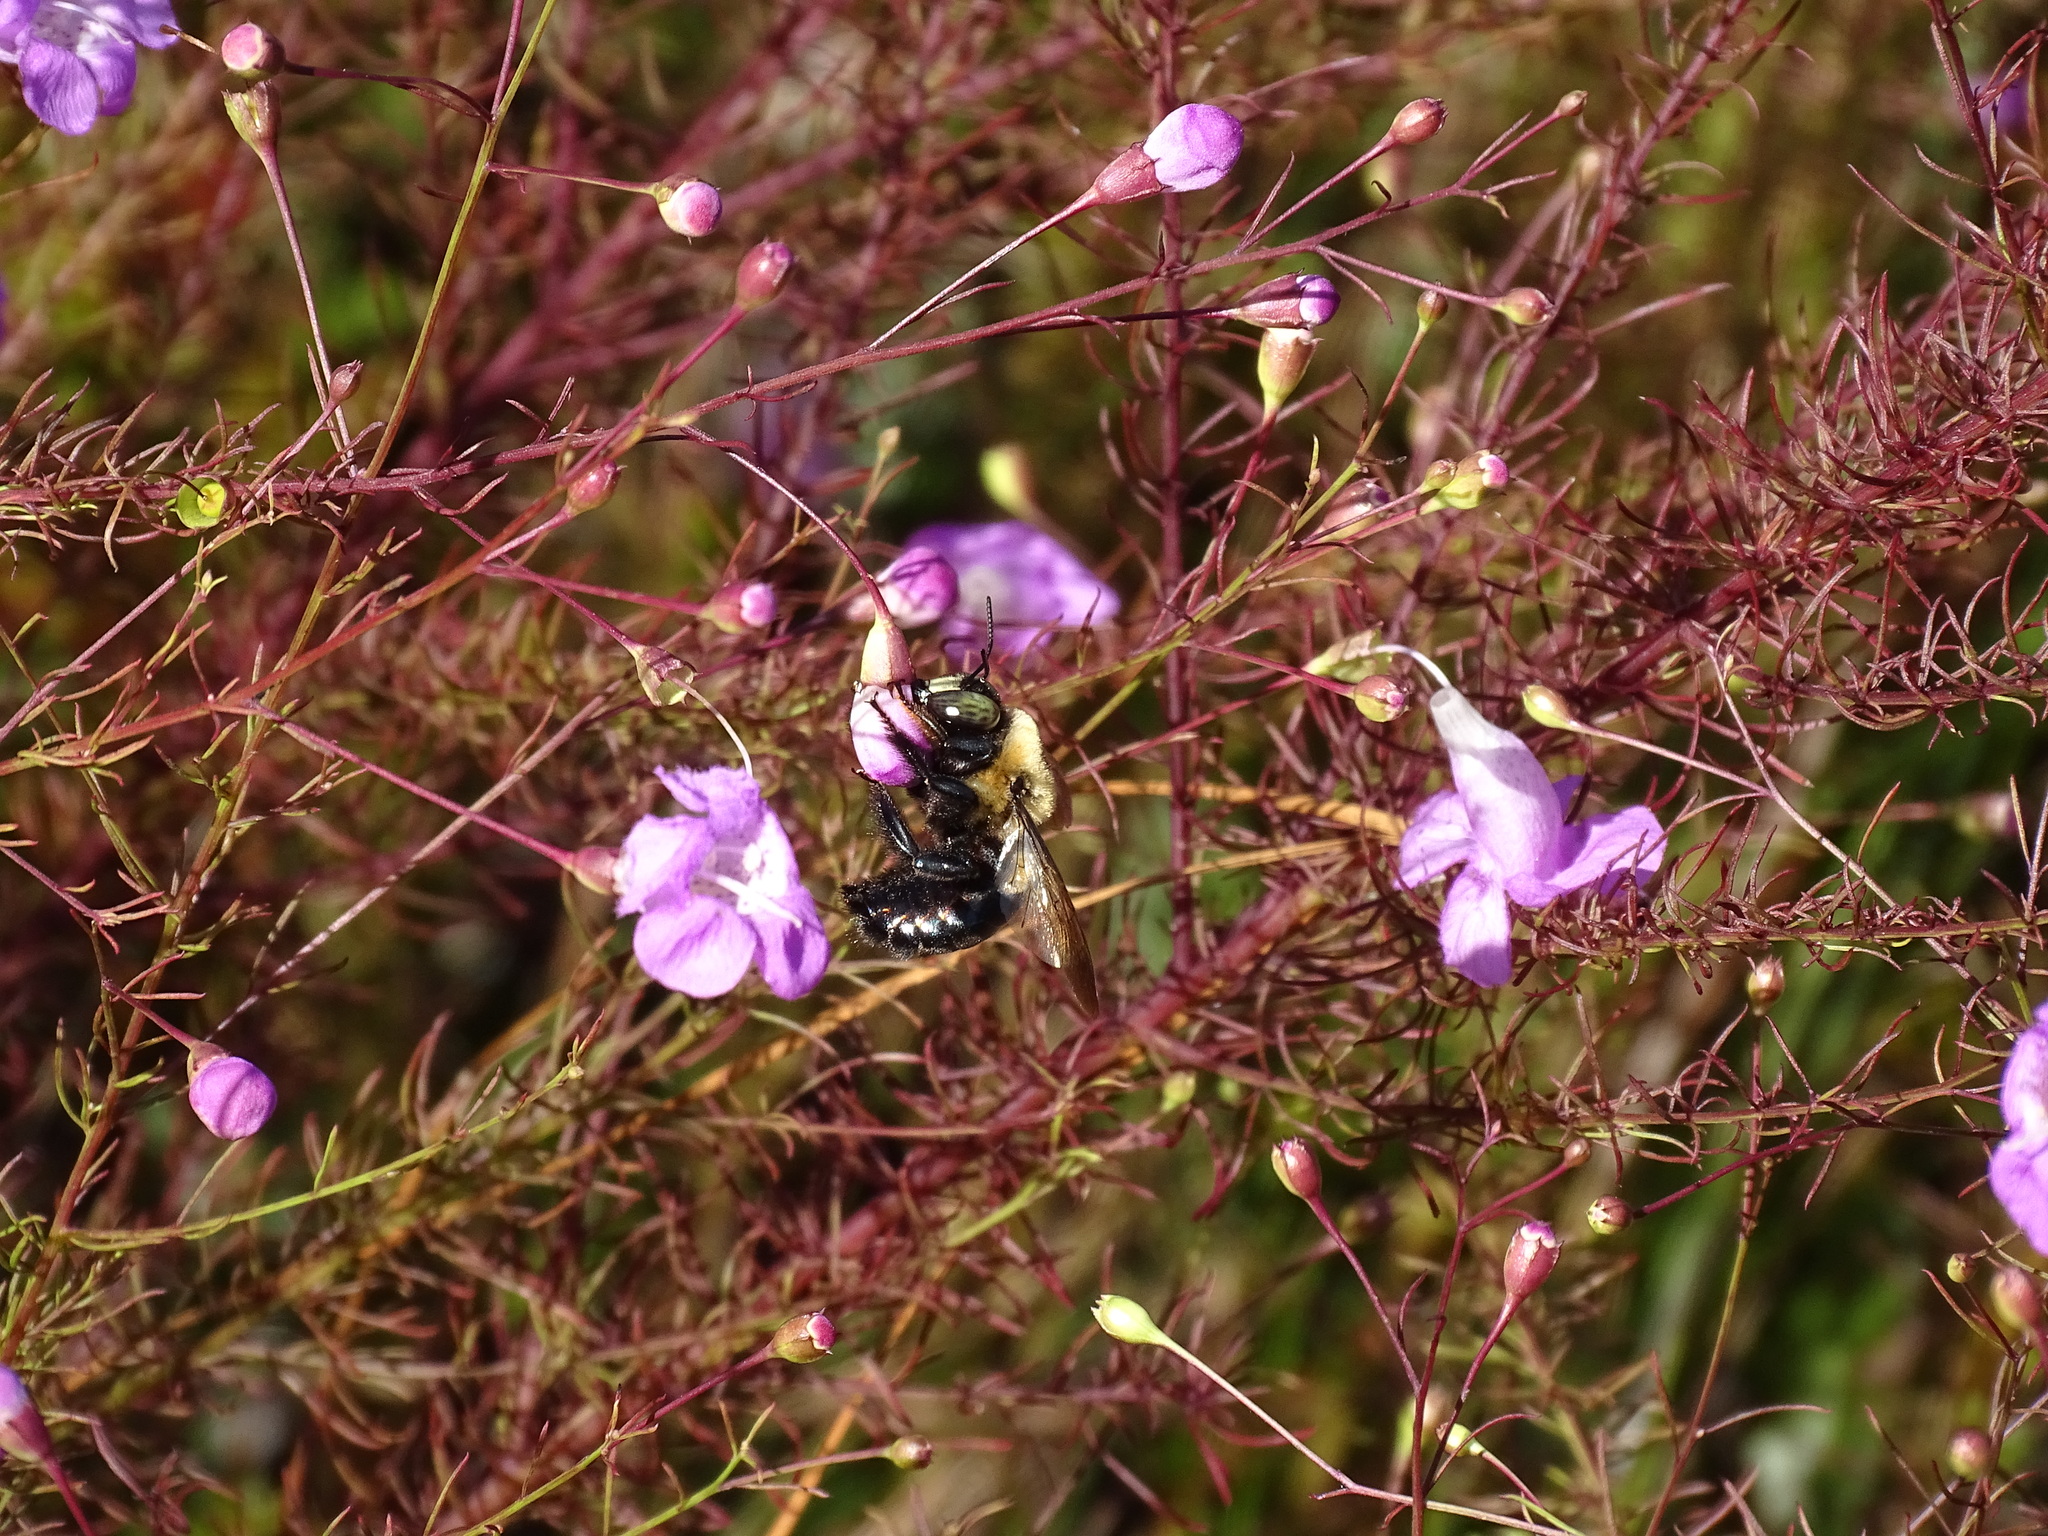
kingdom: Animalia
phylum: Arthropoda
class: Insecta
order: Hymenoptera
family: Apidae
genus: Xylocopa
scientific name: Xylocopa virginica
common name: Carpenter bee
